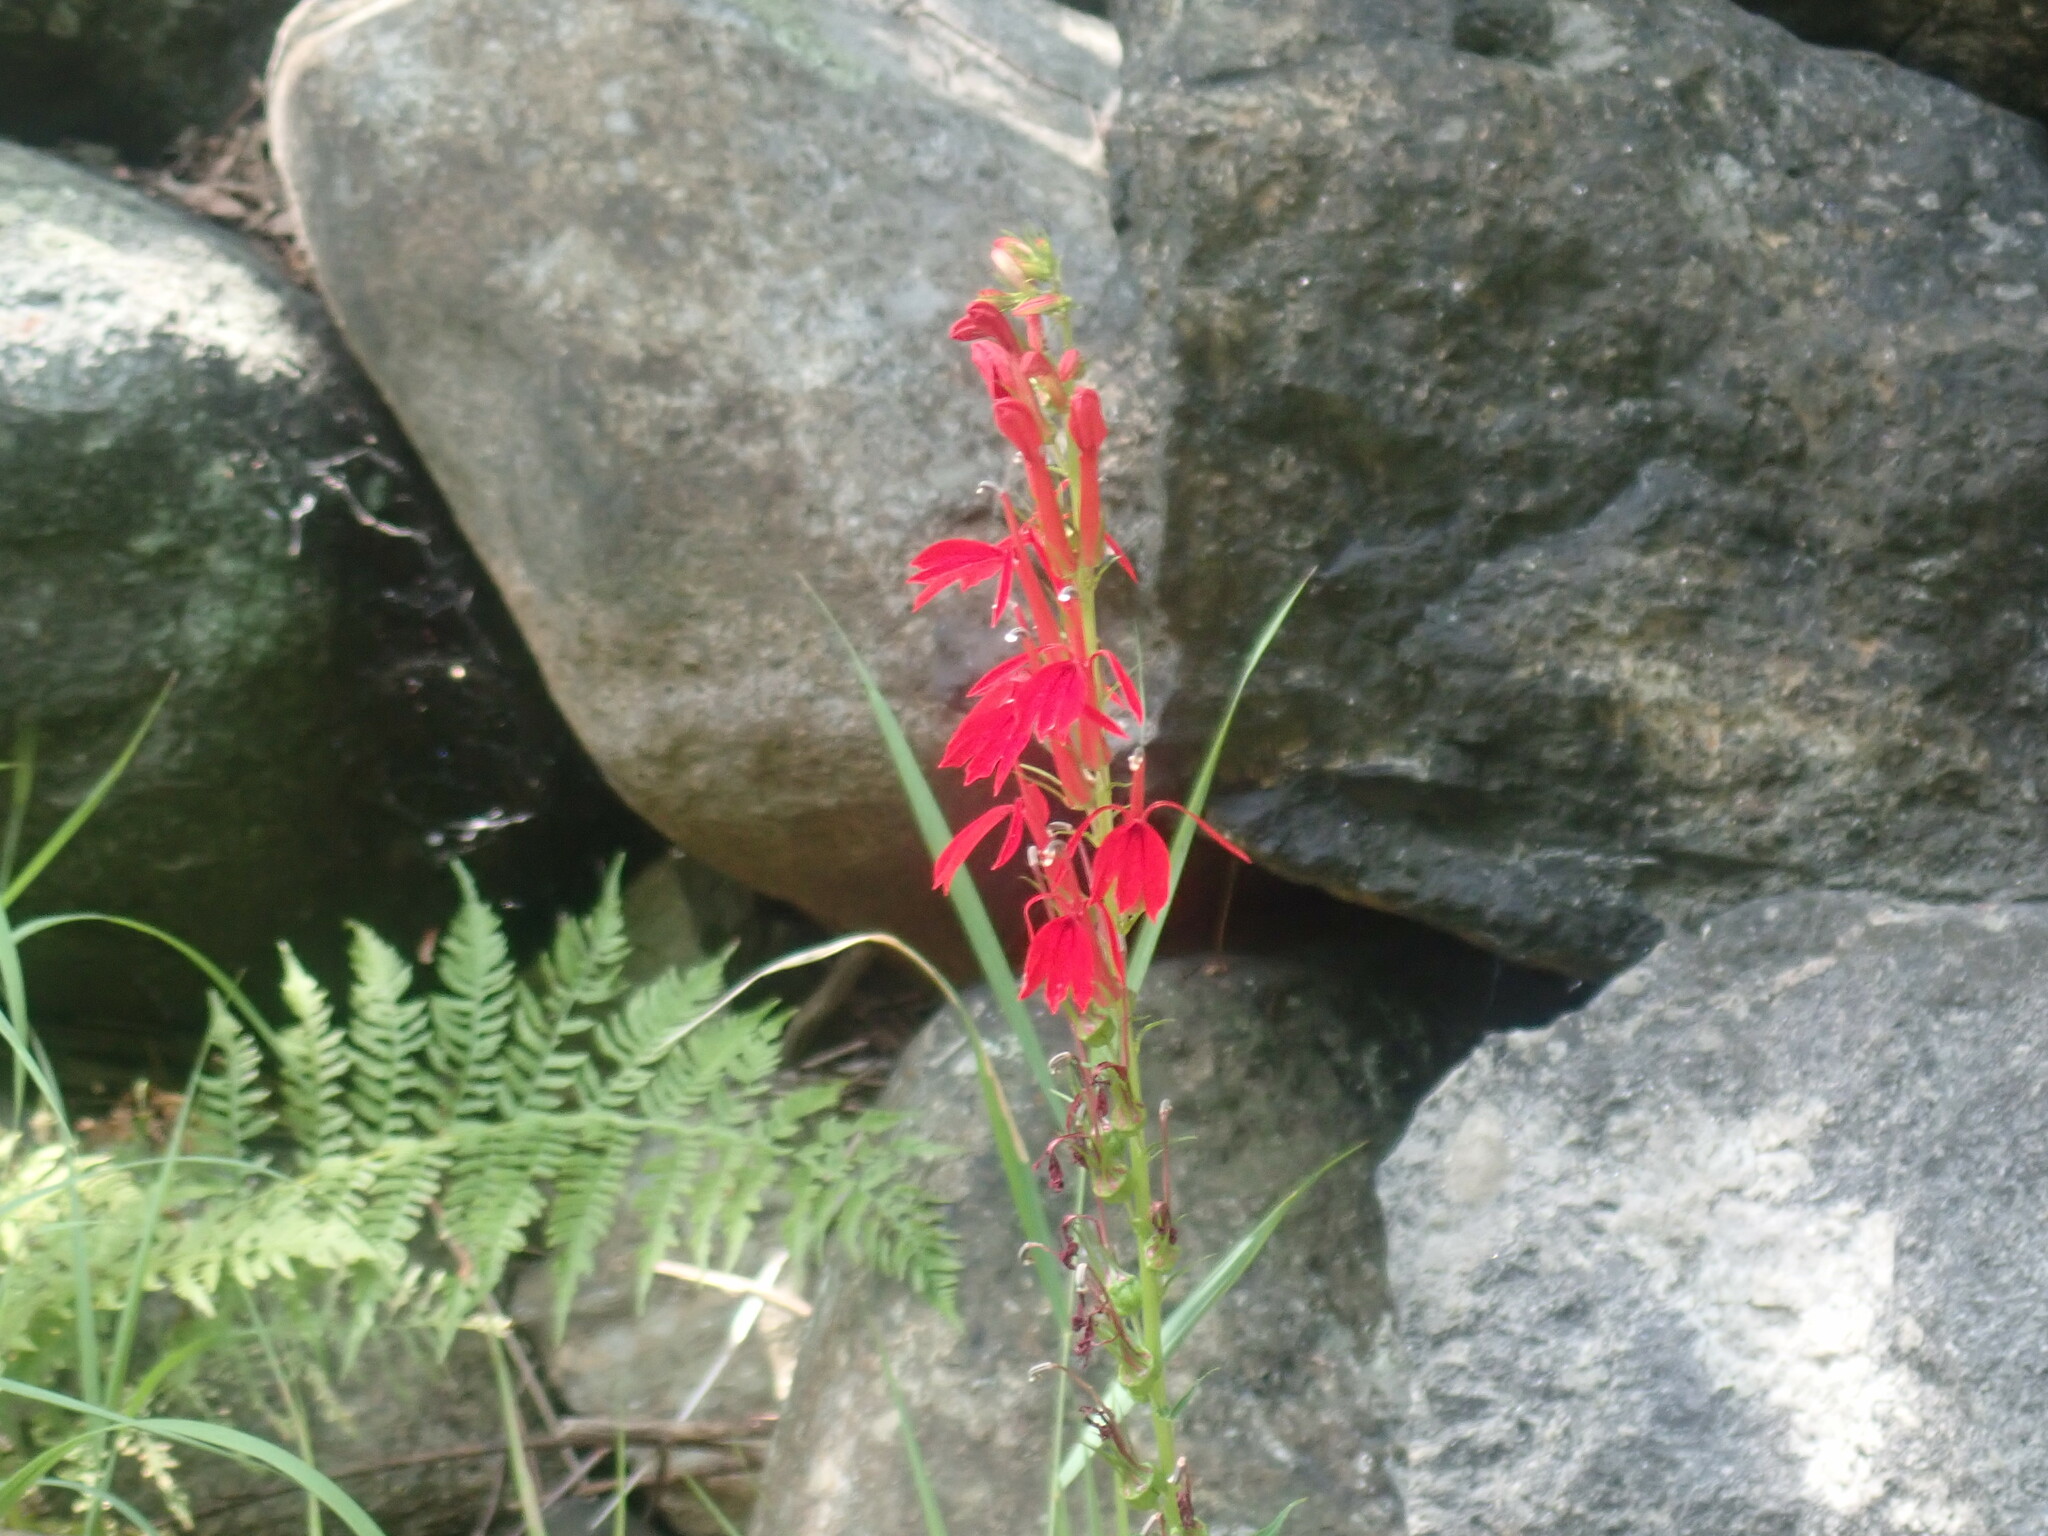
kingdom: Plantae
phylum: Tracheophyta
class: Magnoliopsida
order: Asterales
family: Campanulaceae
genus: Lobelia
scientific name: Lobelia cardinalis
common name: Cardinal flower
